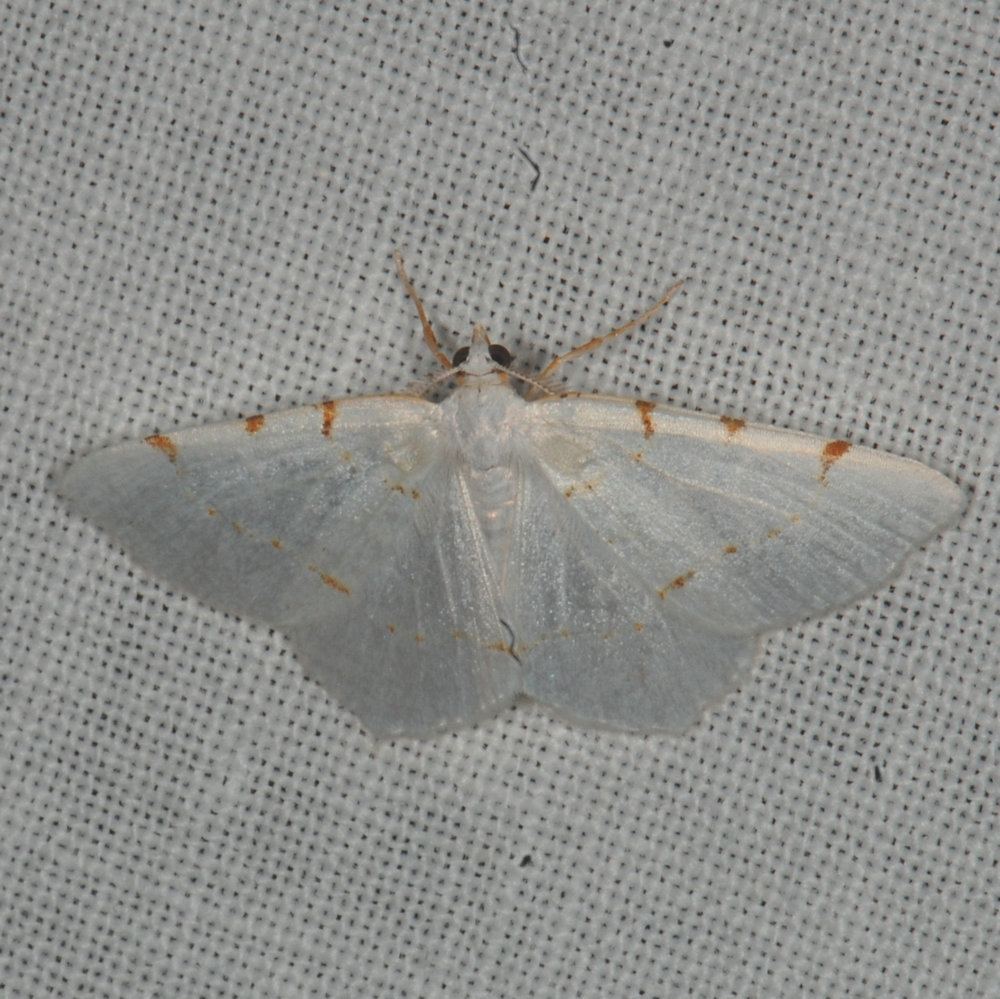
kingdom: Animalia
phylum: Arthropoda
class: Insecta
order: Lepidoptera
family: Geometridae
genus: Macaria
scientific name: Macaria pustularia
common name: Lesser maple spanworm moth
